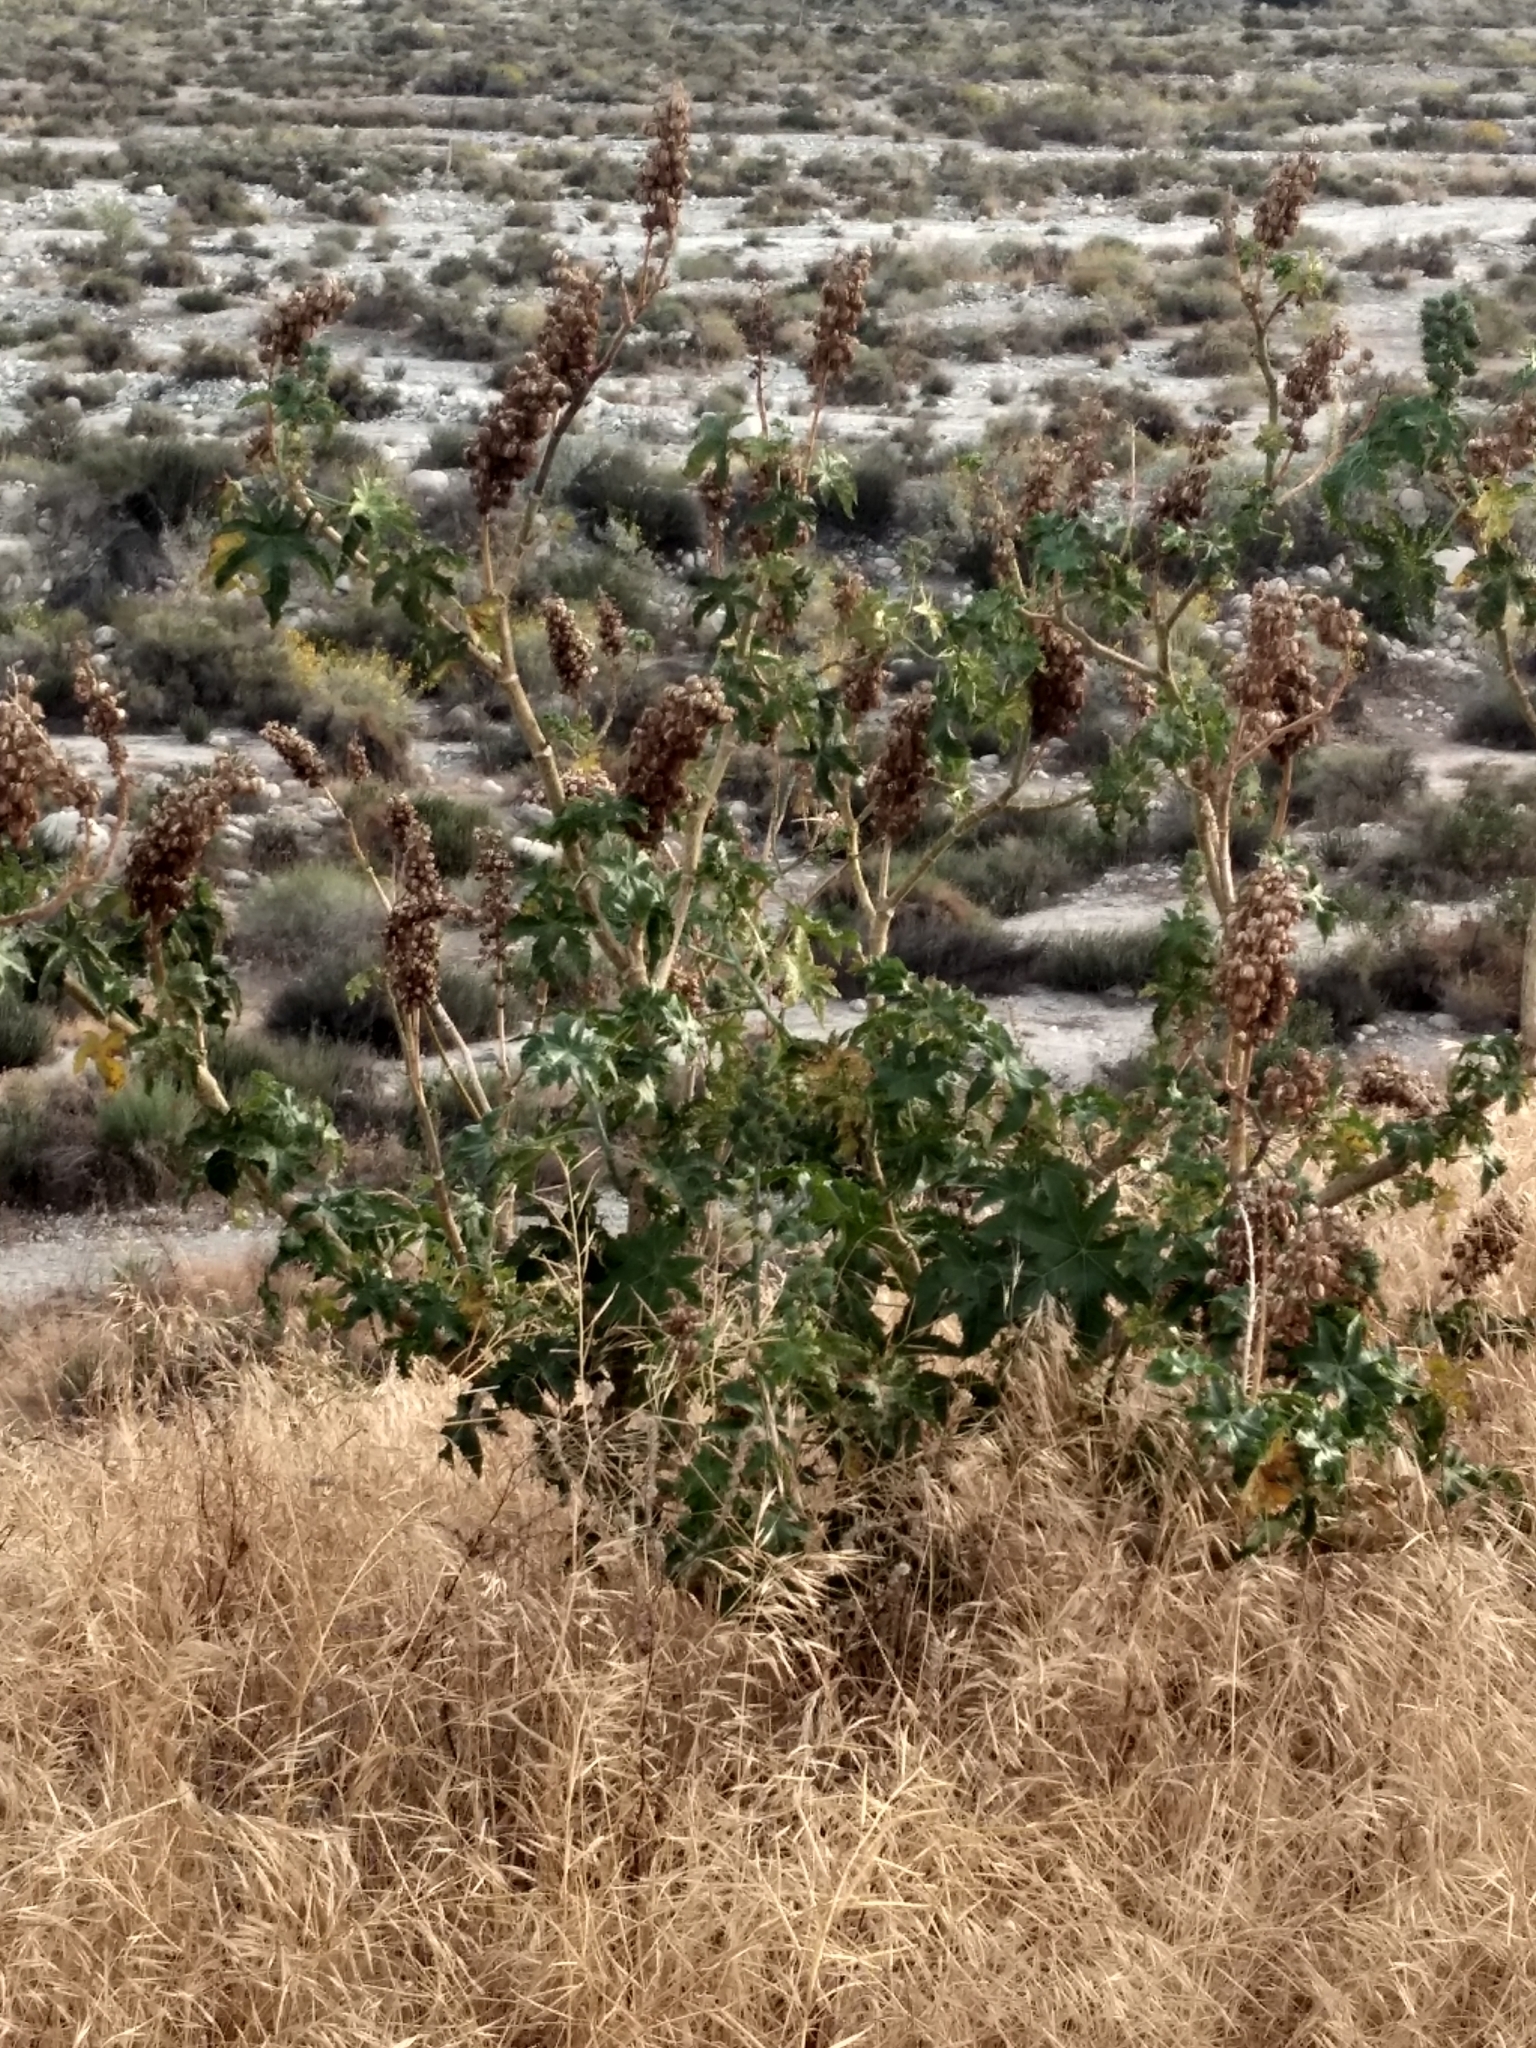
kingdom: Plantae
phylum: Tracheophyta
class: Magnoliopsida
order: Malpighiales
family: Euphorbiaceae
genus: Ricinus
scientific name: Ricinus communis
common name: Castor-oil-plant
